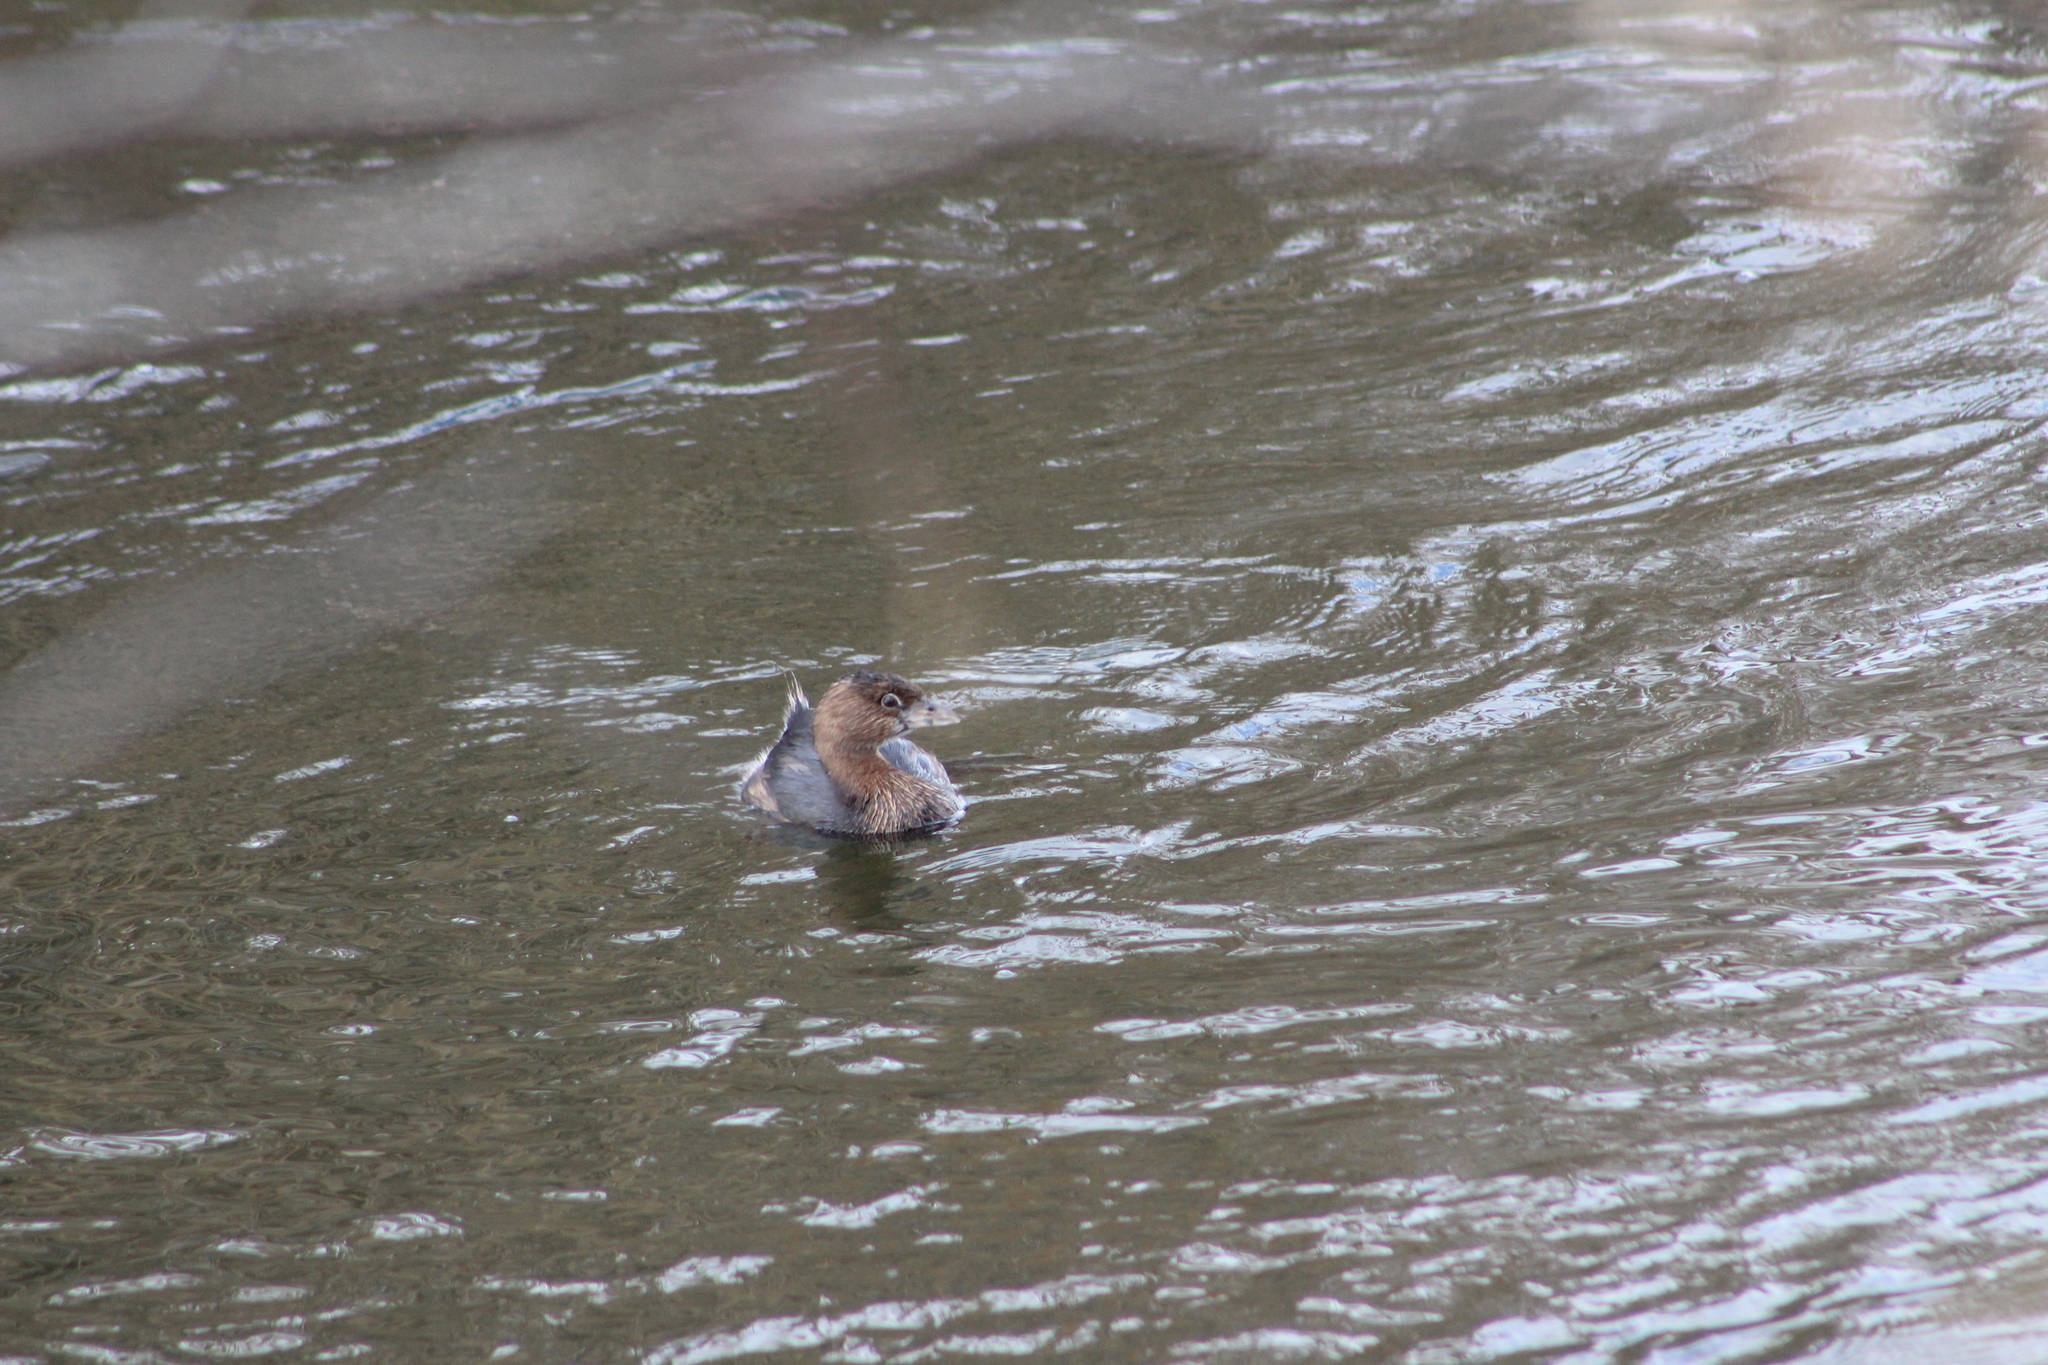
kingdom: Animalia
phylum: Chordata
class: Aves
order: Podicipediformes
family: Podicipedidae
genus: Podilymbus
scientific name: Podilymbus podiceps
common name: Pied-billed grebe
